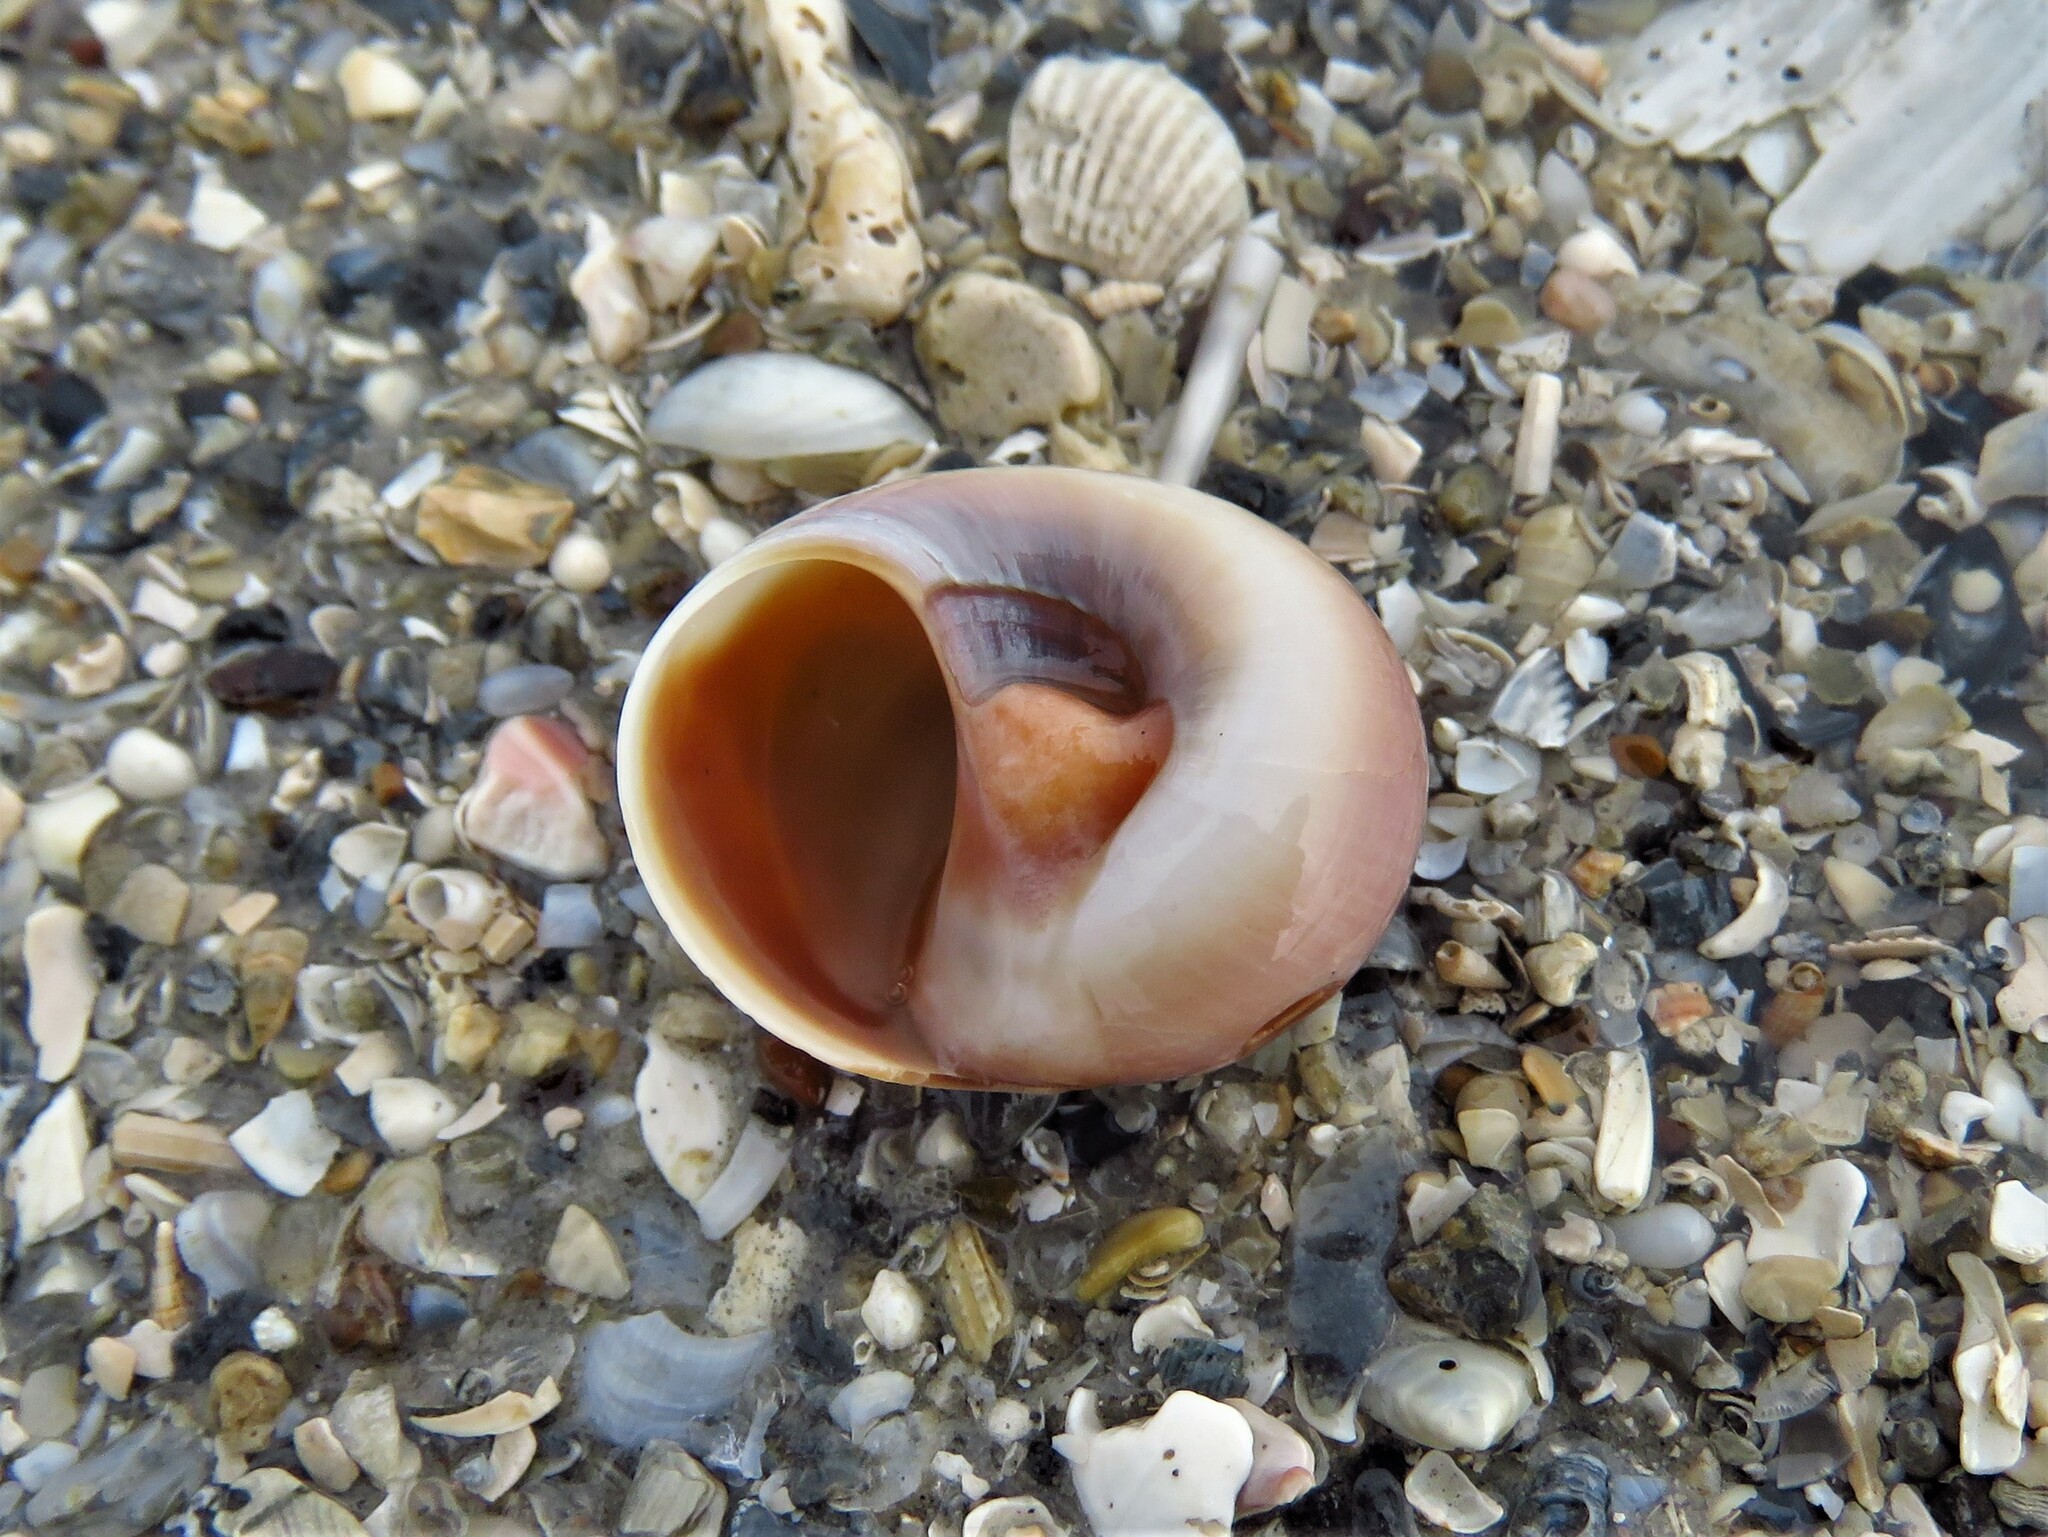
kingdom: Animalia
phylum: Mollusca
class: Gastropoda
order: Littorinimorpha
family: Naticidae
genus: Neverita
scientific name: Neverita delessertiana
